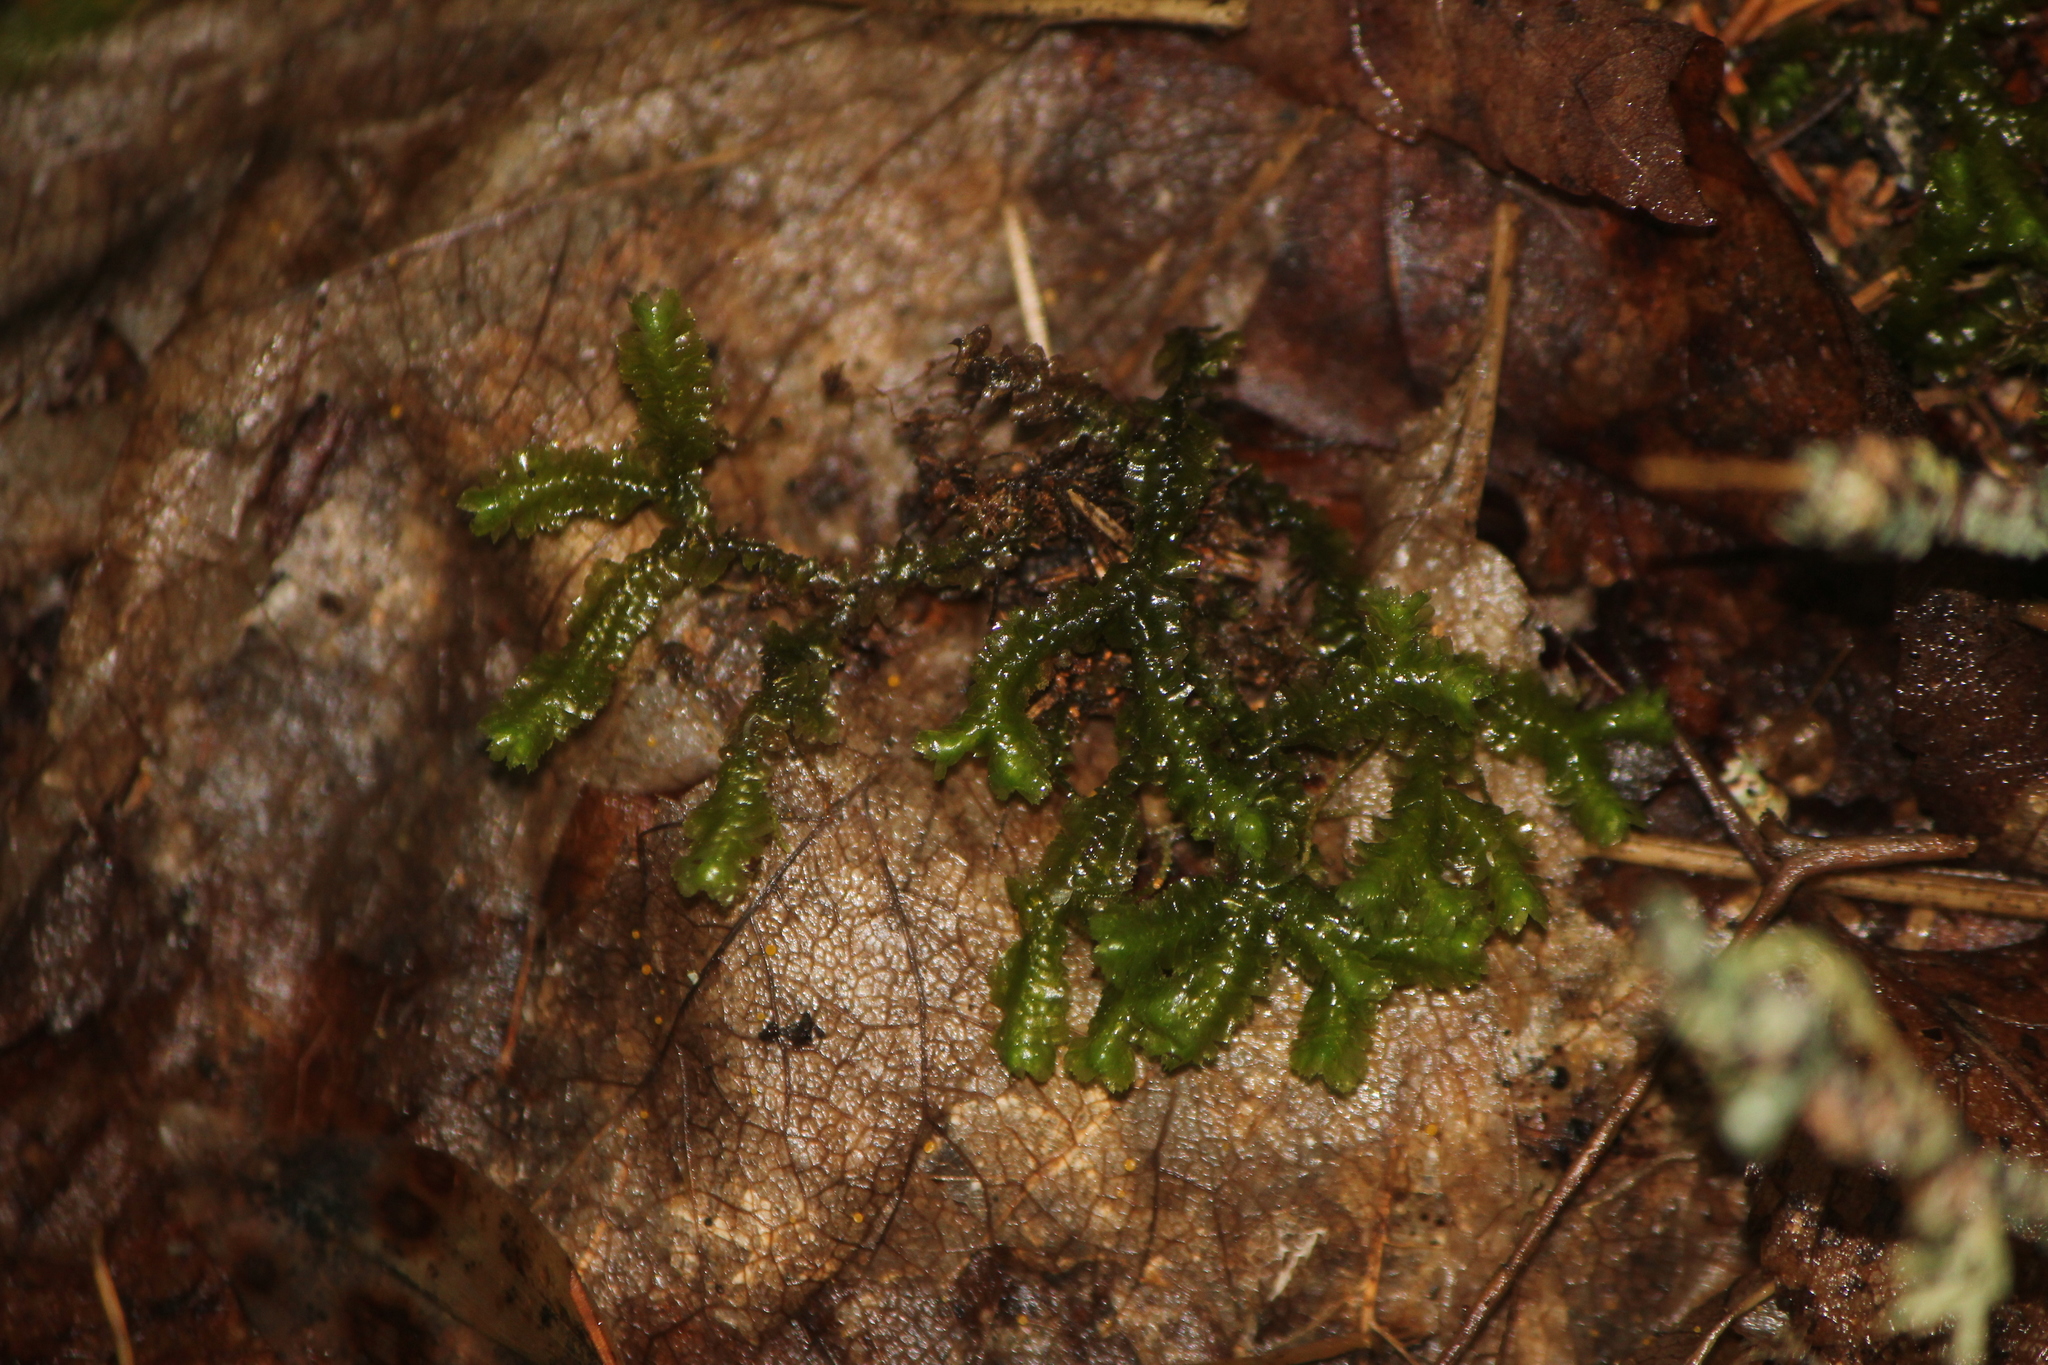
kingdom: Plantae
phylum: Marchantiophyta
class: Jungermanniopsida
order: Jungermanniales
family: Lepidoziaceae
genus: Bazzania
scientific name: Bazzania trilobata
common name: Three-lobed whipwort
